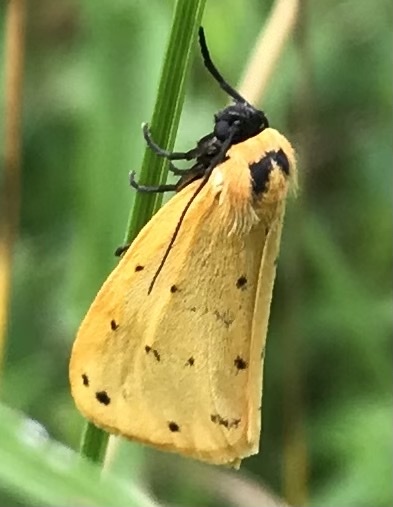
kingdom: Animalia
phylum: Arthropoda
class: Insecta
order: Lepidoptera
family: Erebidae
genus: Setina
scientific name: Setina irrorella
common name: Dew moth
